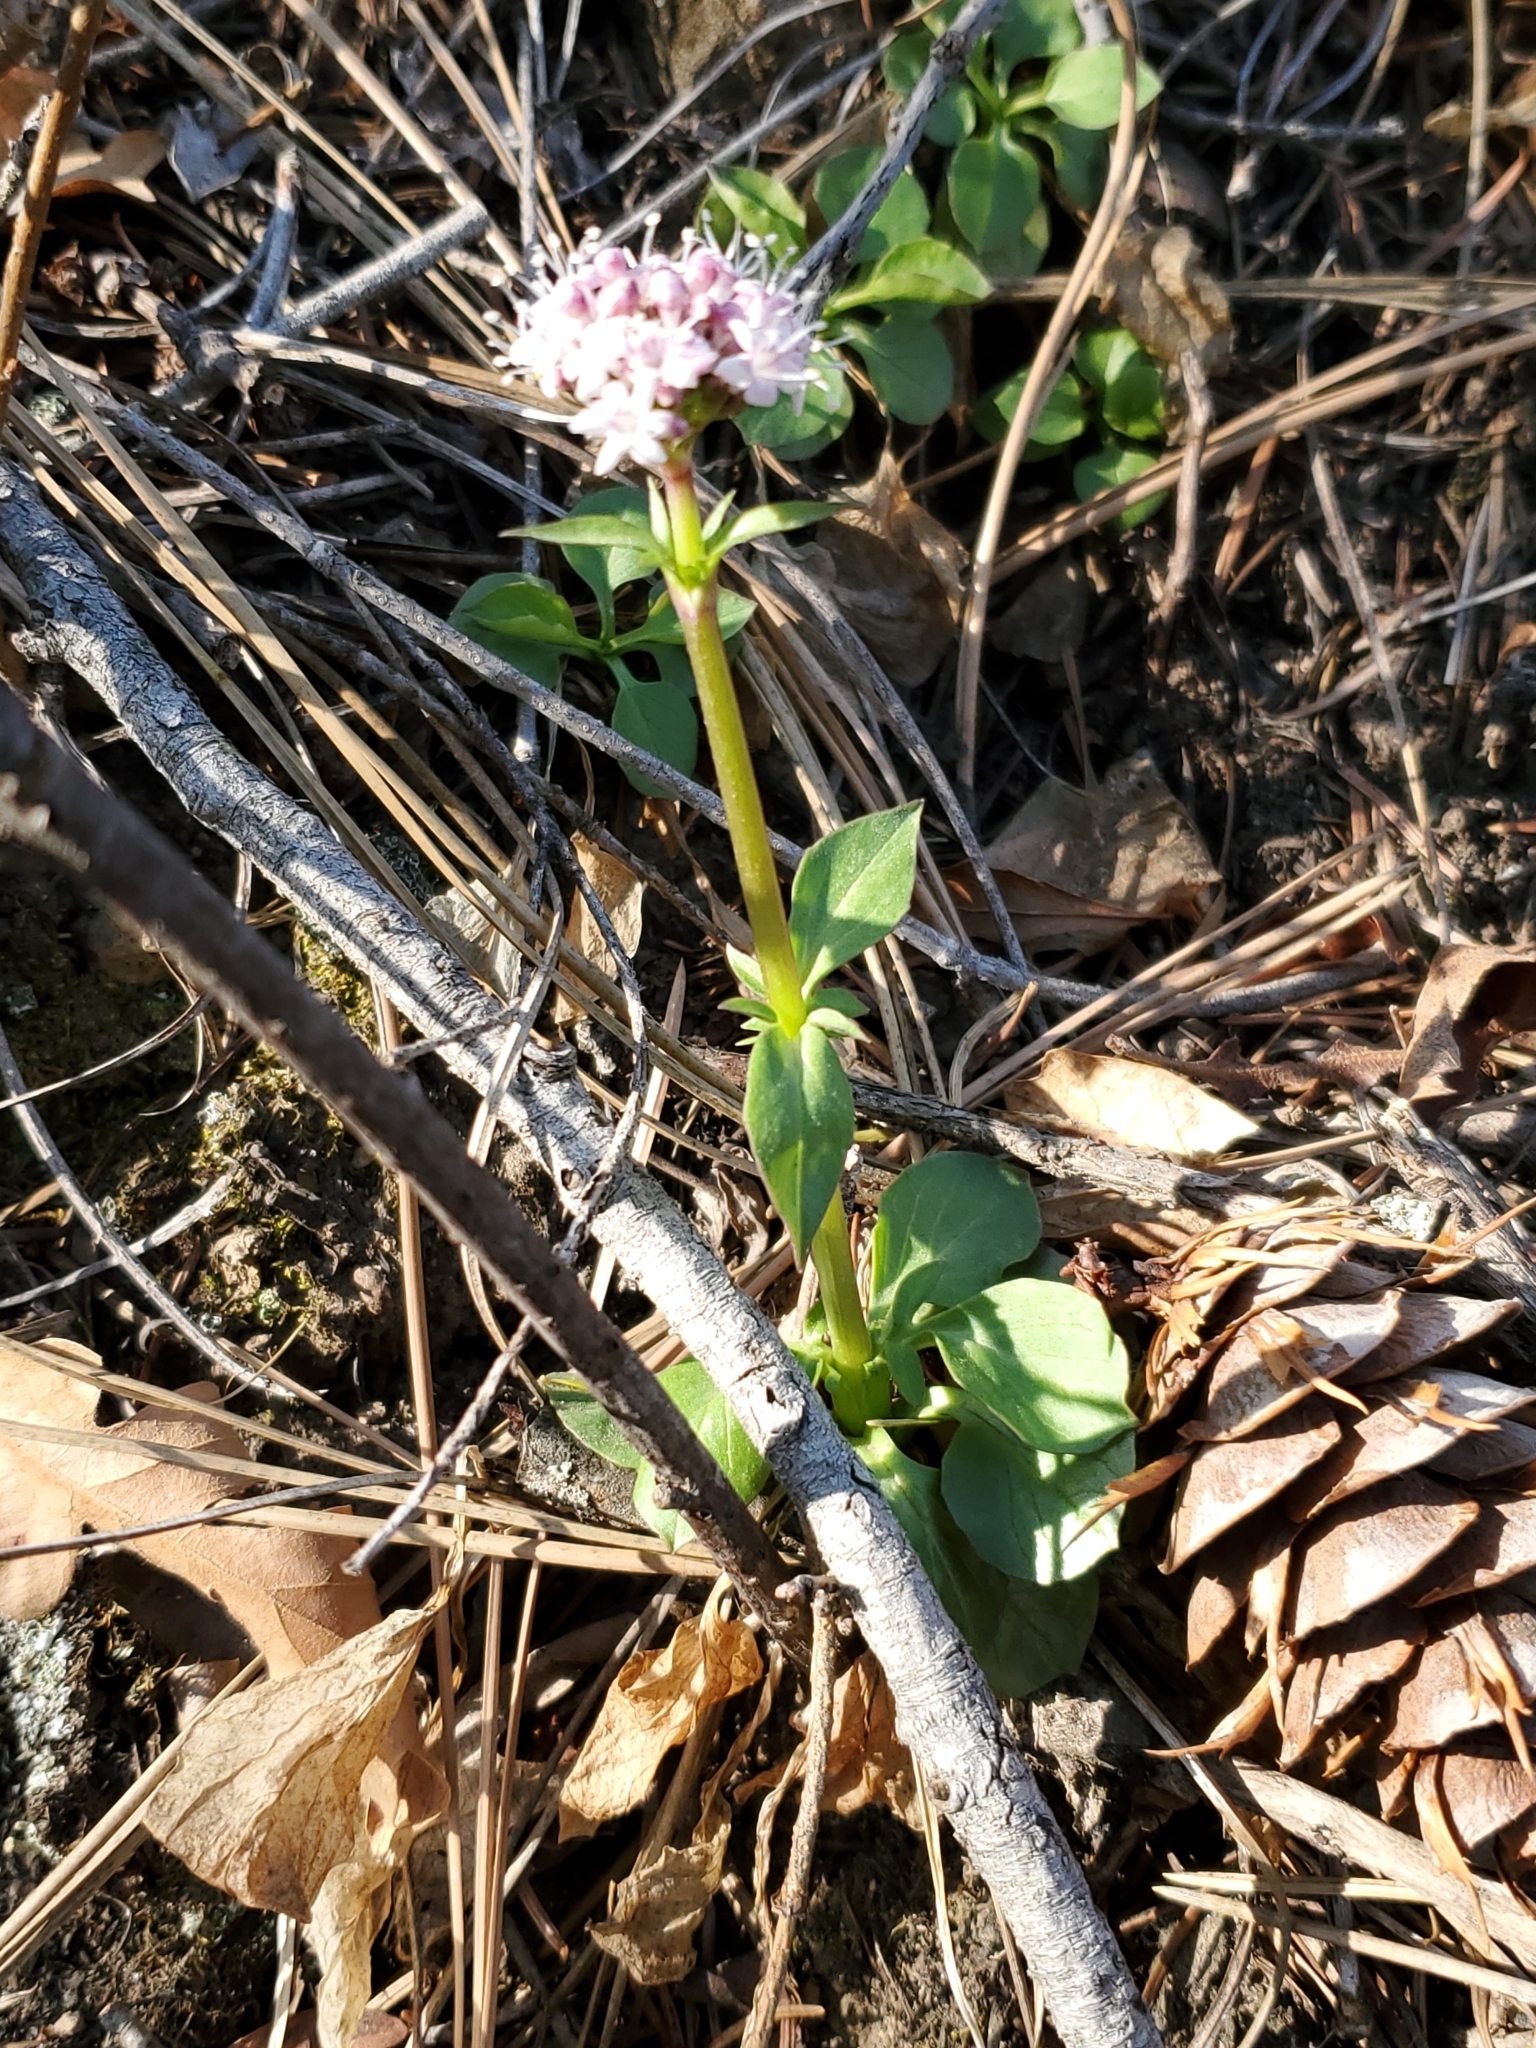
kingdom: Plantae
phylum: Tracheophyta
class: Magnoliopsida
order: Dipsacales
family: Caprifoliaceae
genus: Valeriana
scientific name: Valeriana arizonica
